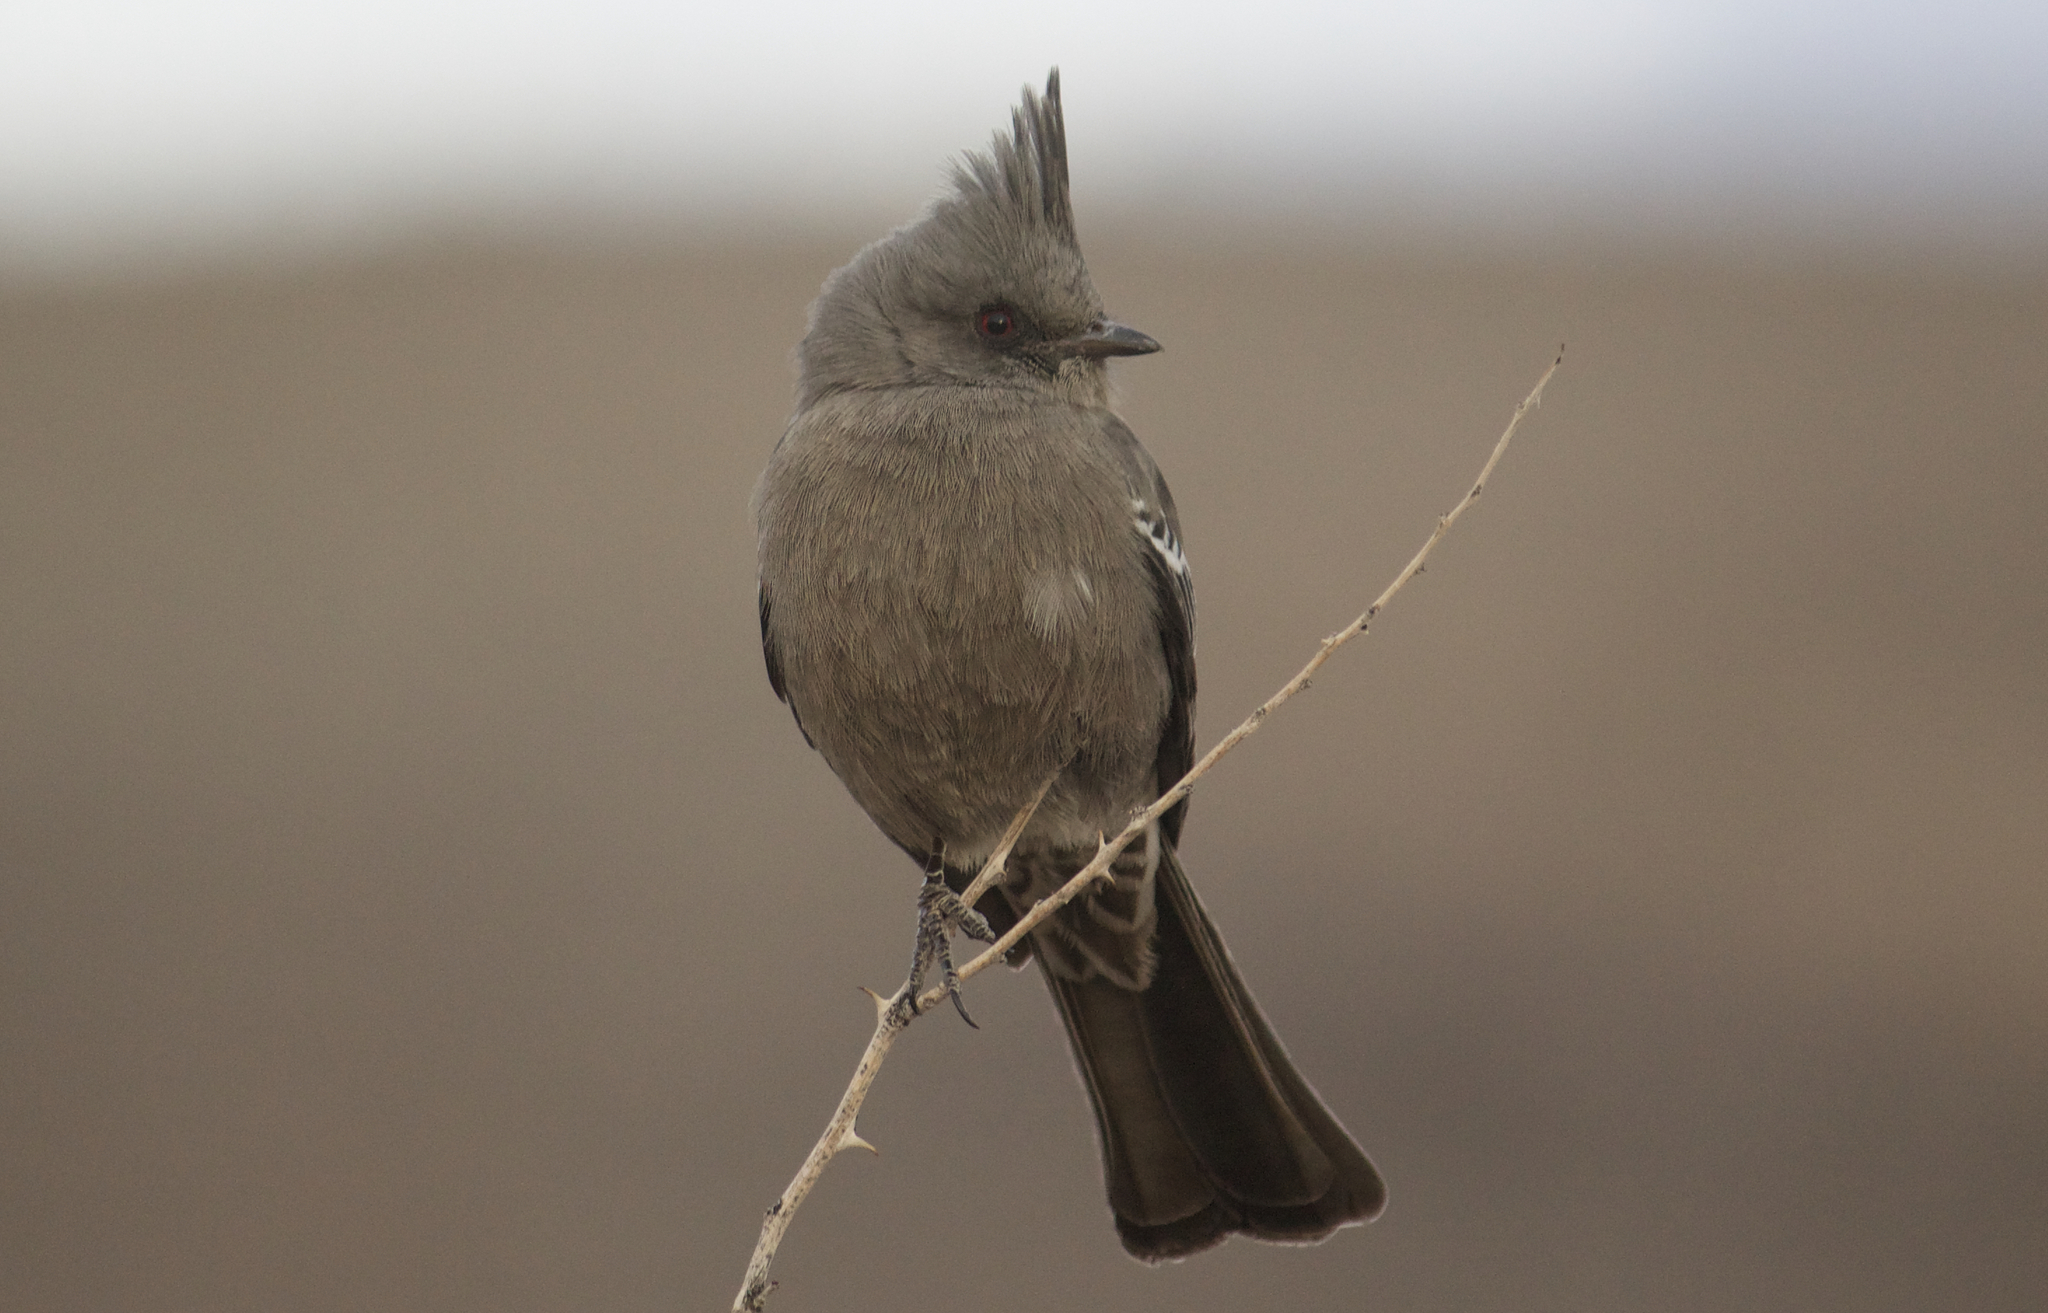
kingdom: Animalia
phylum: Chordata
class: Aves
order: Passeriformes
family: Ptilogonatidae
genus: Phainopepla
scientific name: Phainopepla nitens
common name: Phainopepla
